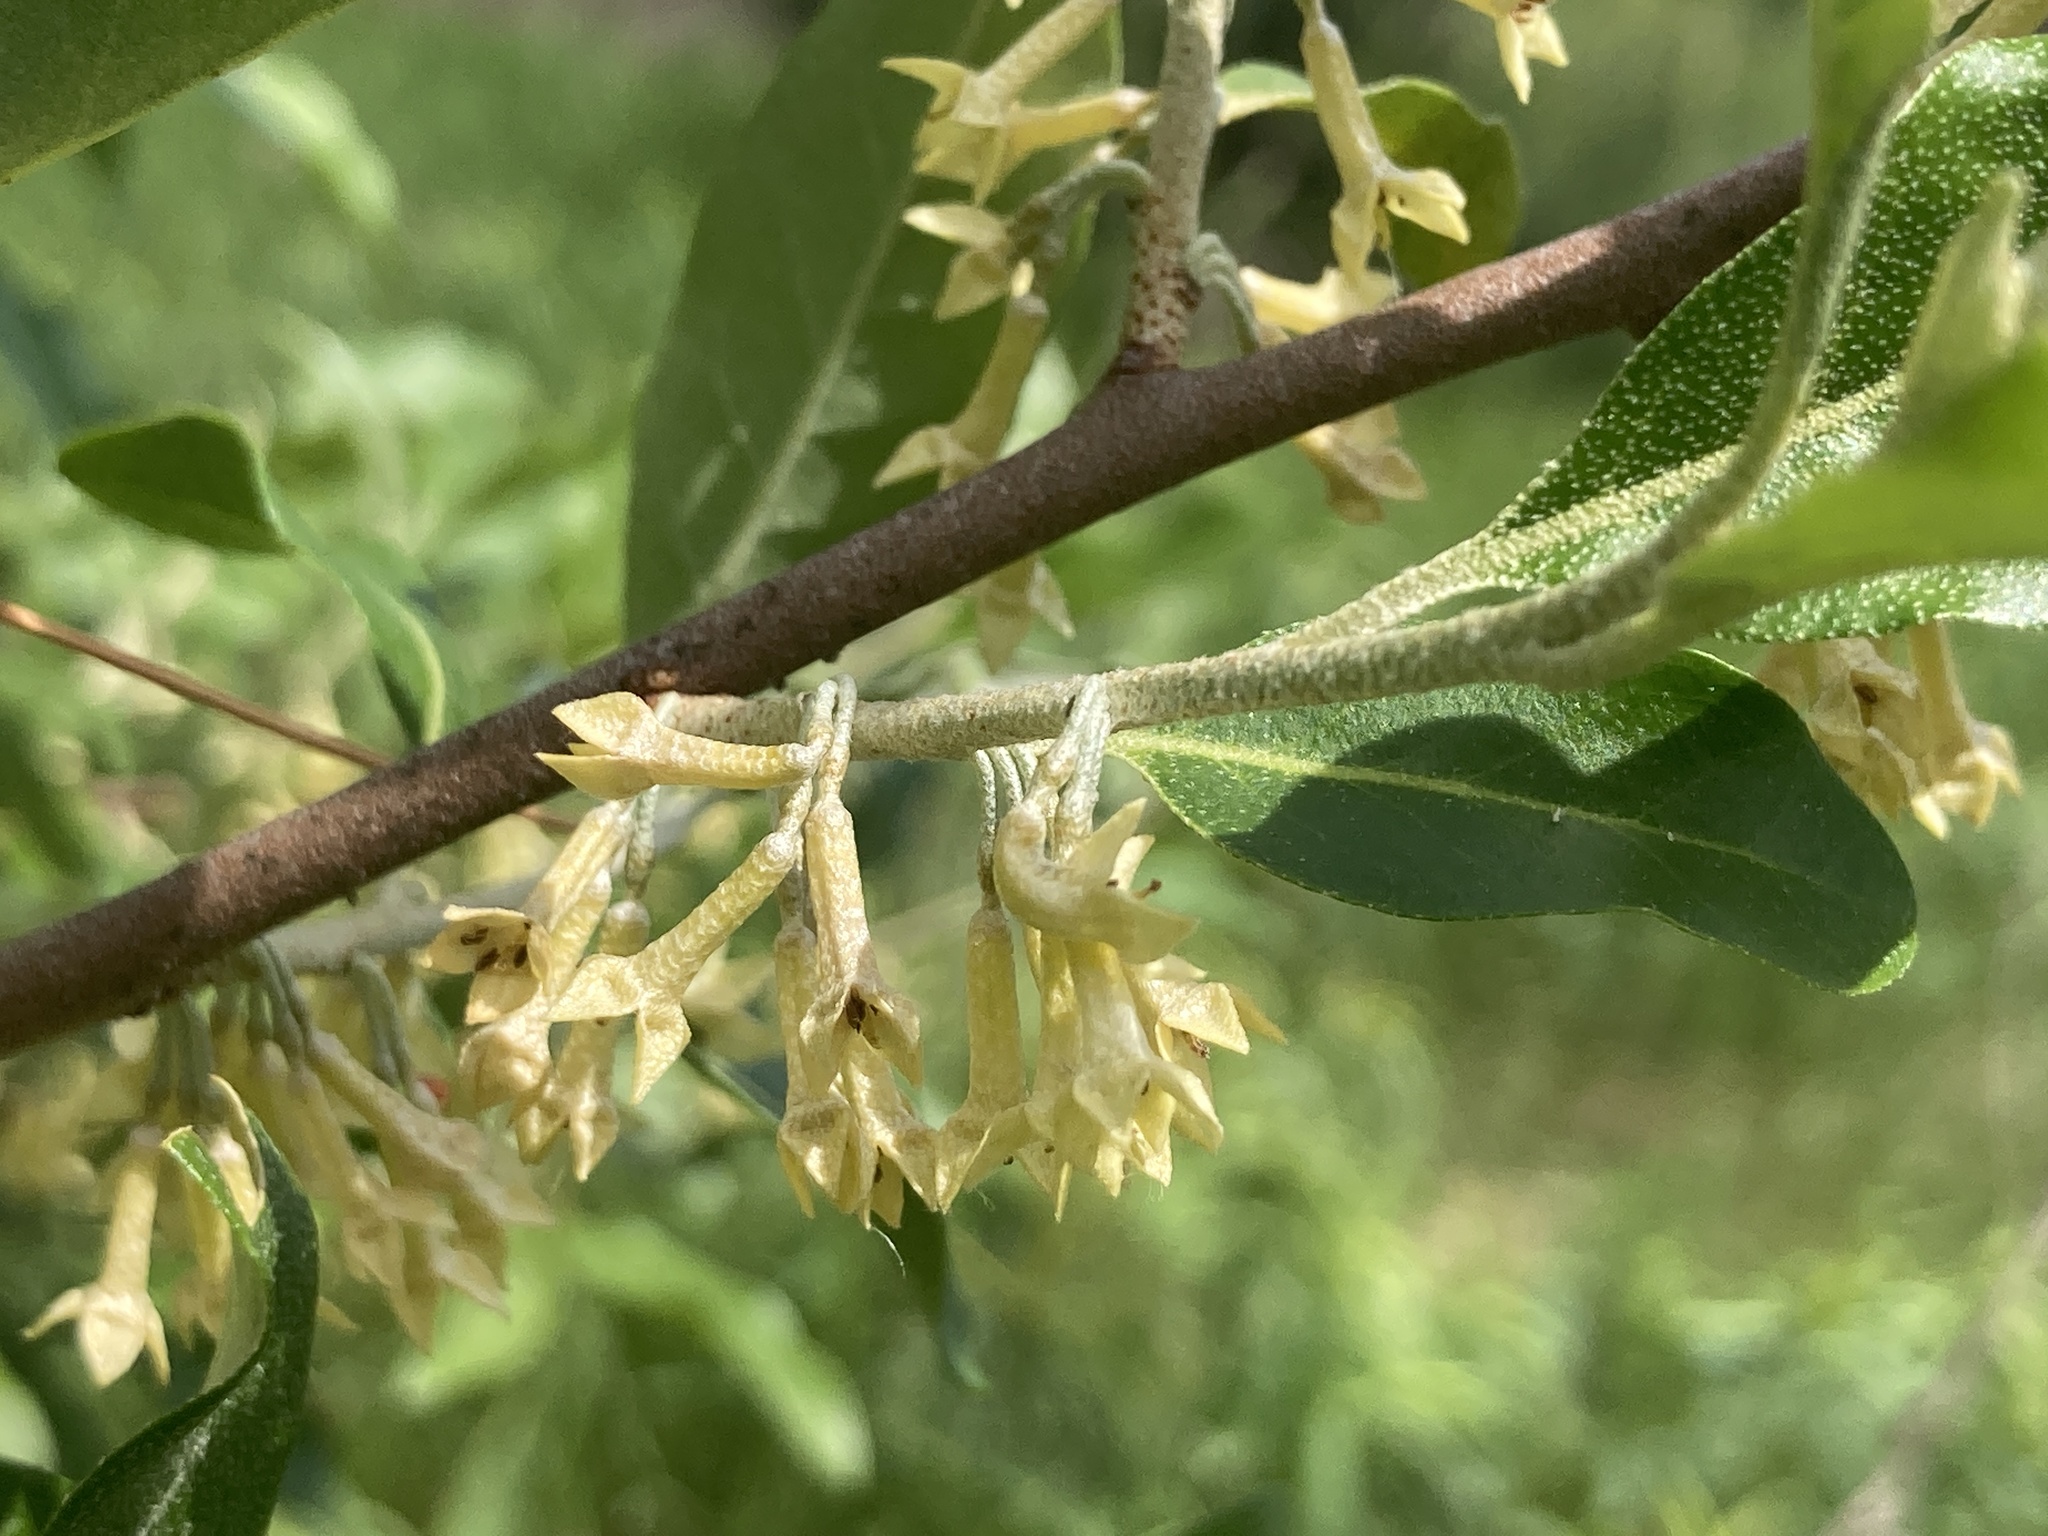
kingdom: Plantae
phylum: Tracheophyta
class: Magnoliopsida
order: Rosales
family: Elaeagnaceae
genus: Elaeagnus
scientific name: Elaeagnus umbellata
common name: Autumn olive
